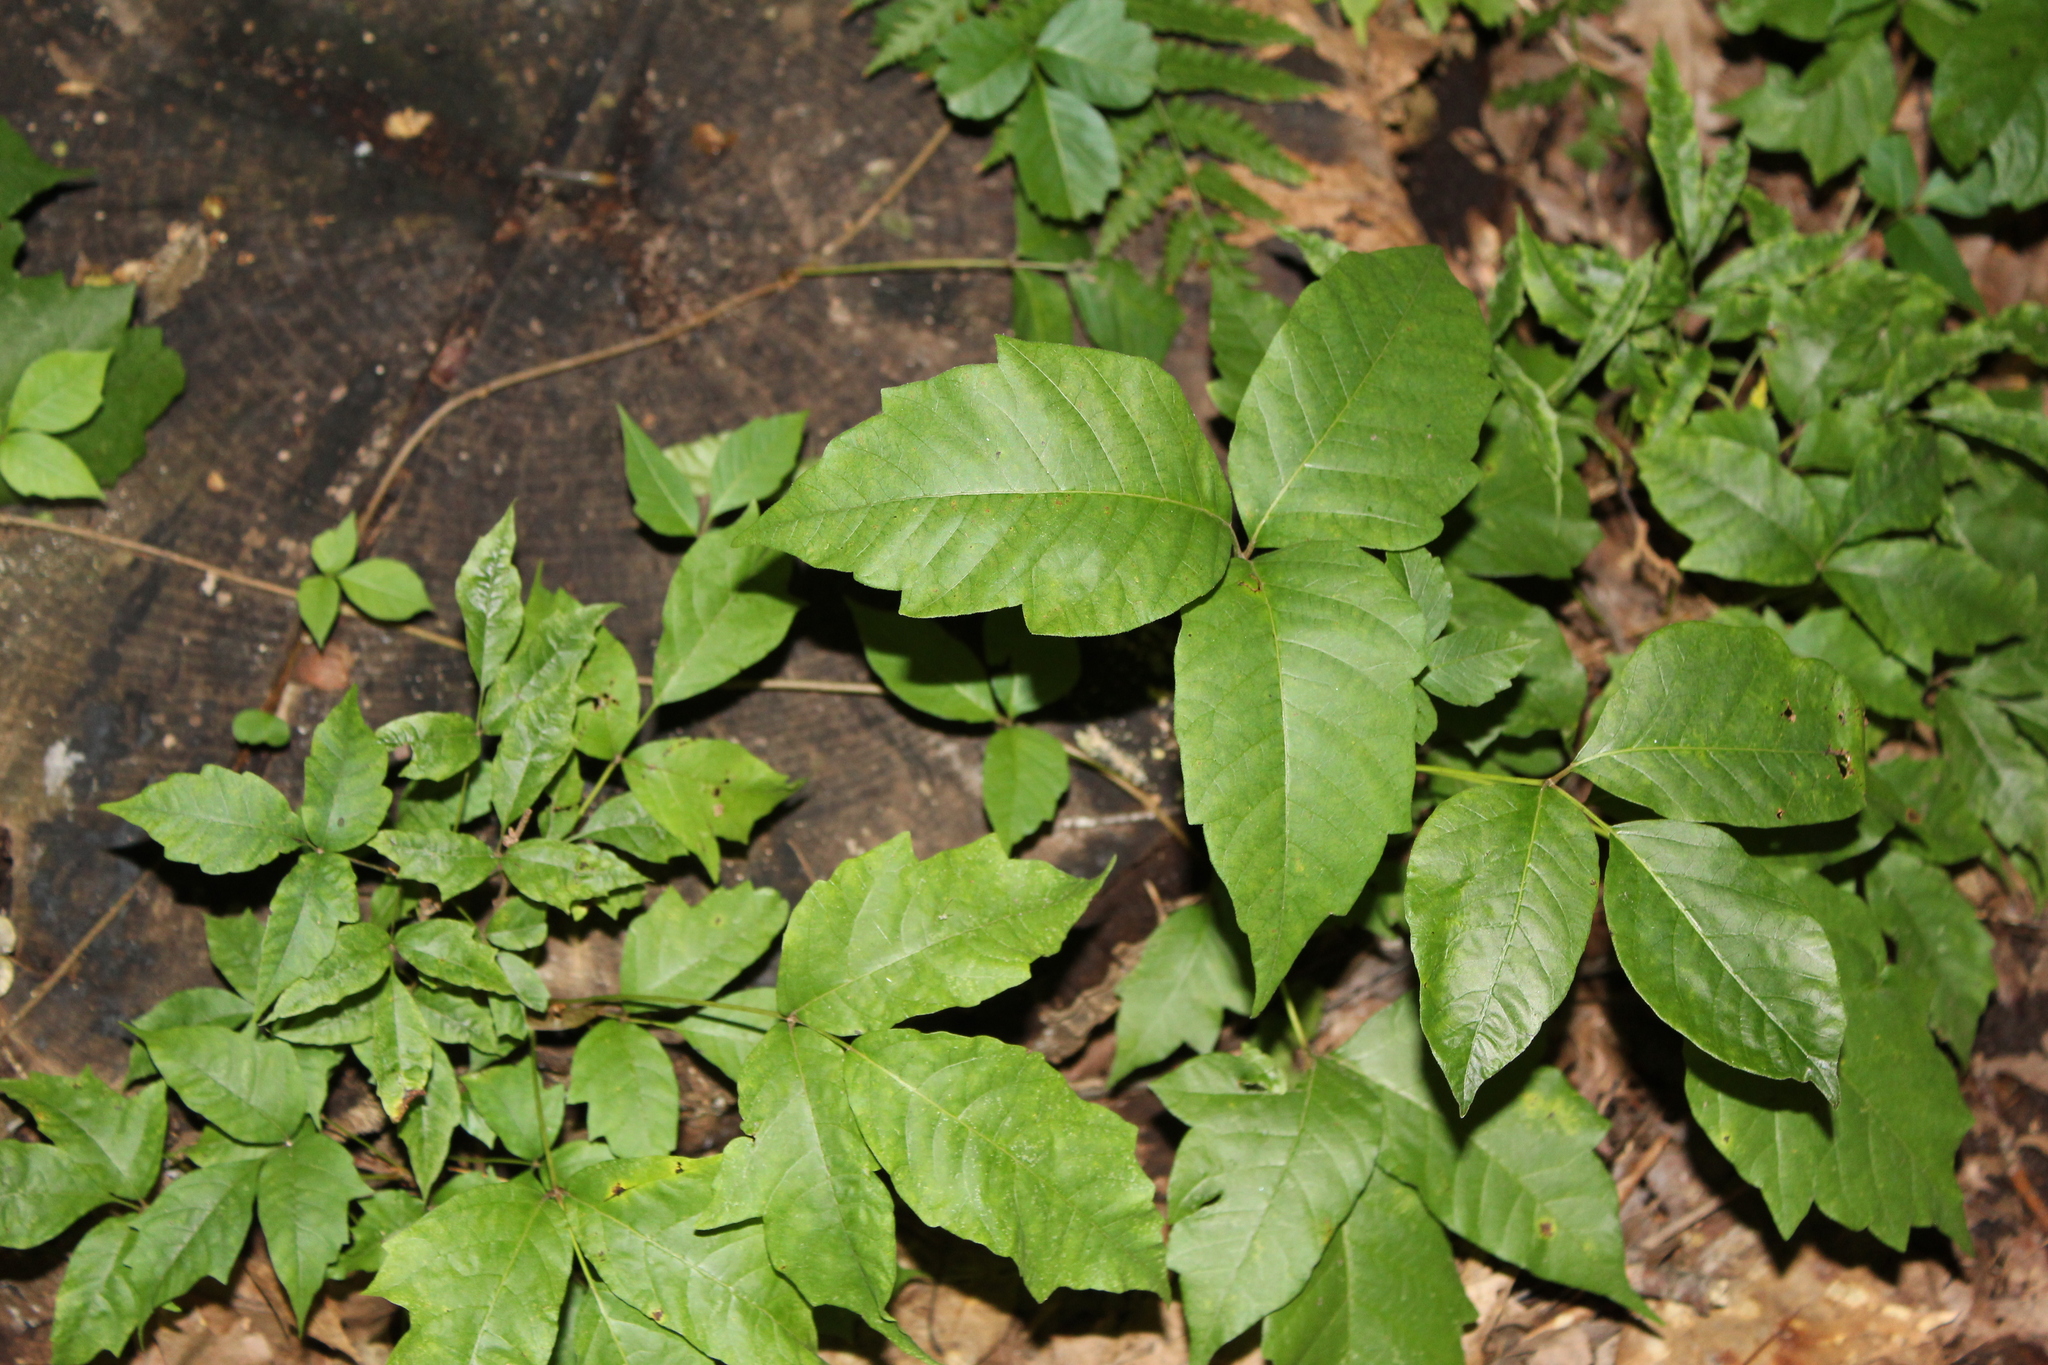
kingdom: Plantae
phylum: Tracheophyta
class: Magnoliopsida
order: Sapindales
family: Anacardiaceae
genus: Toxicodendron
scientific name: Toxicodendron radicans
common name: Poison ivy
